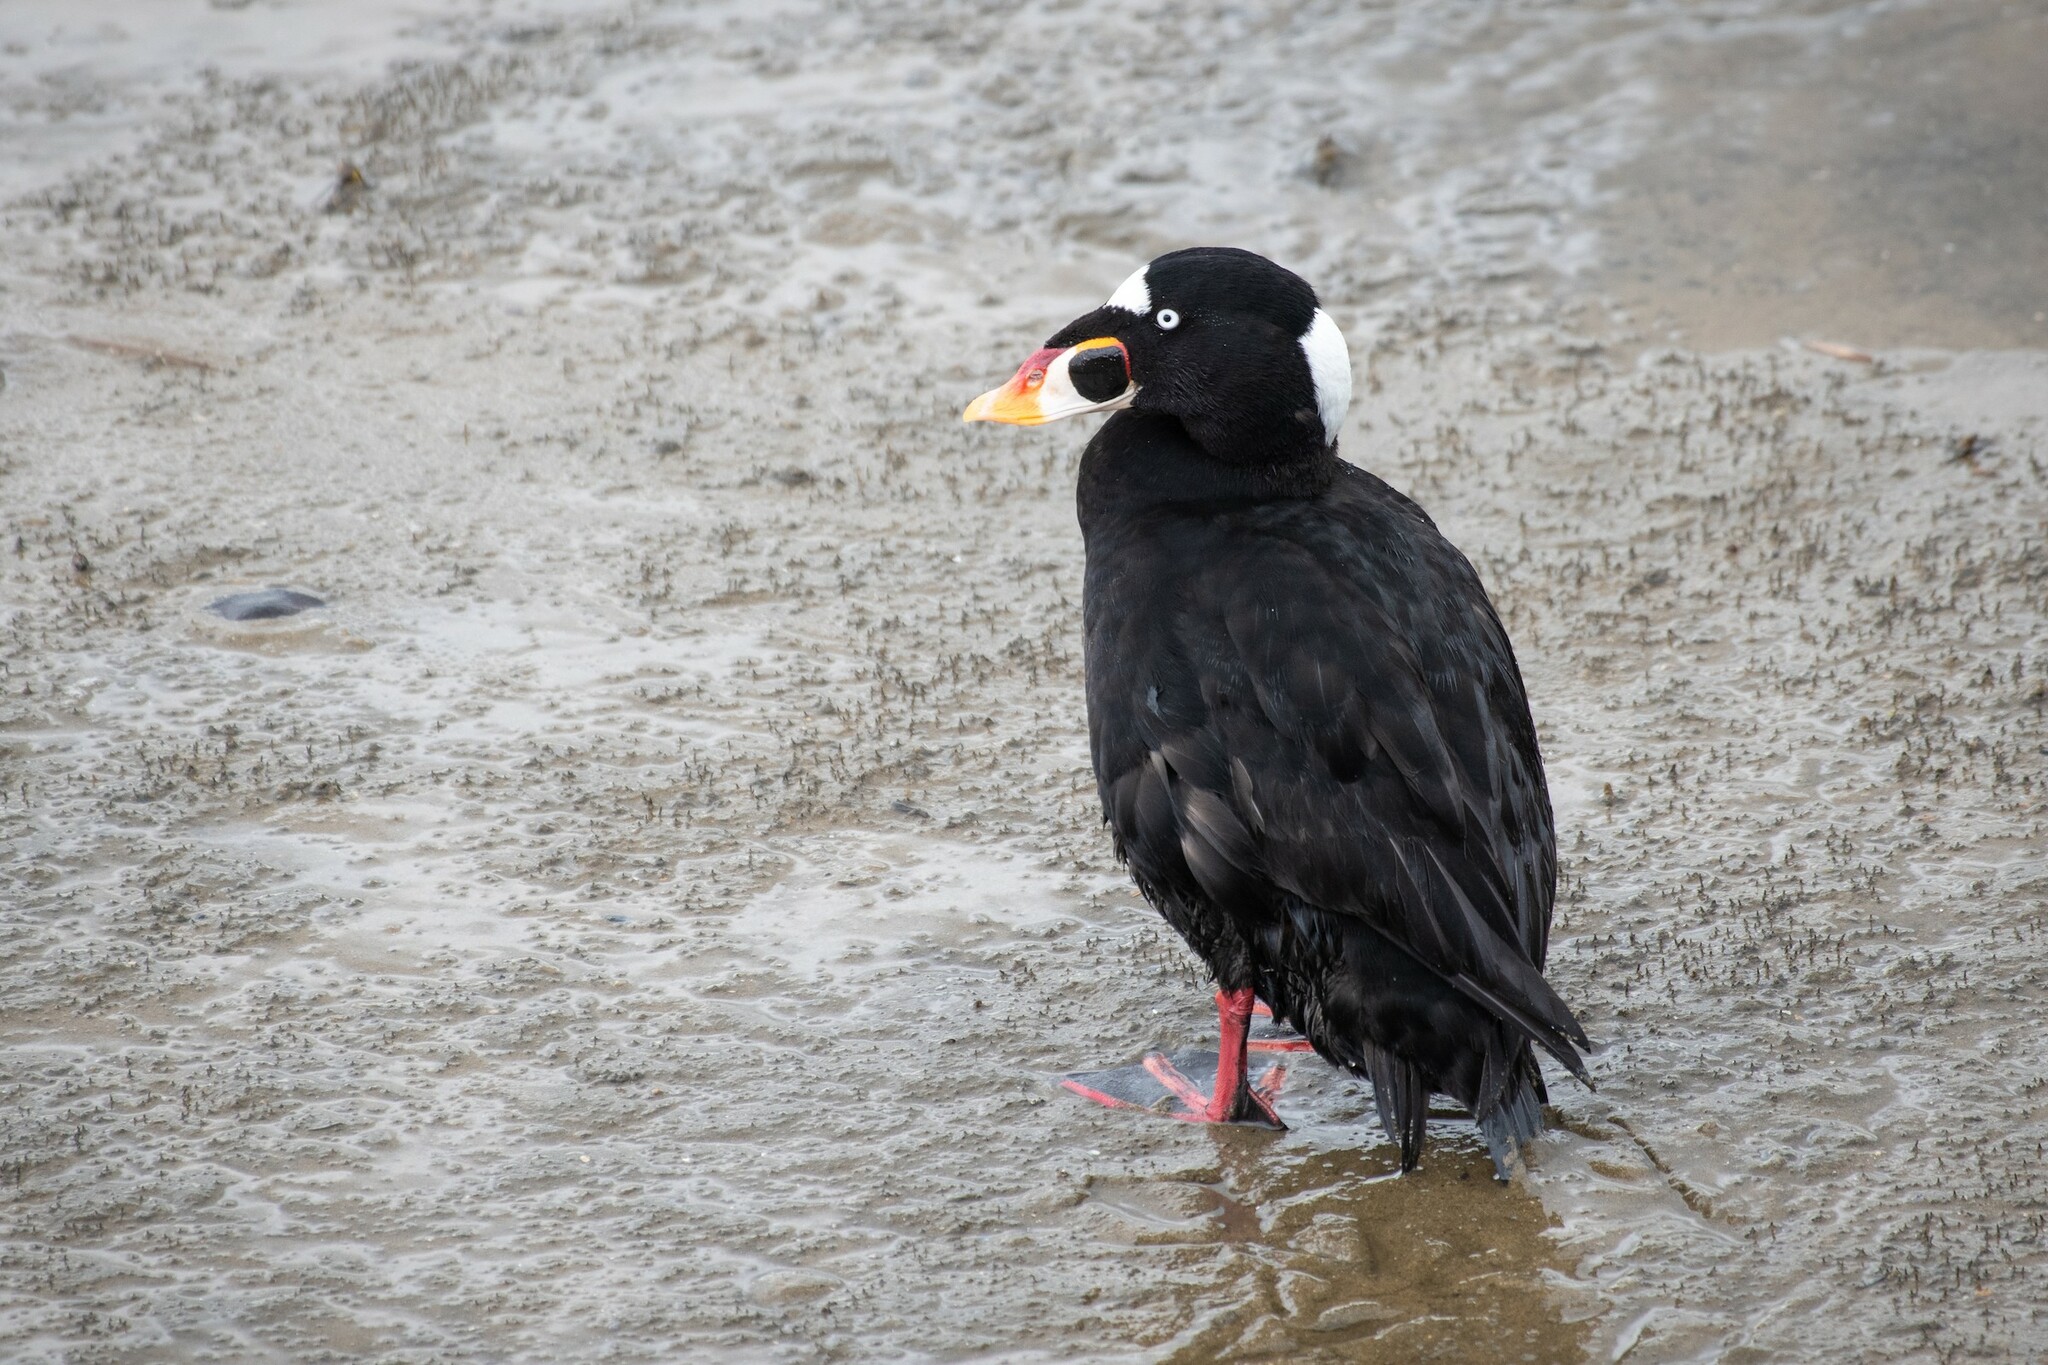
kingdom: Animalia
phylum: Chordata
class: Aves
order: Anseriformes
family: Anatidae
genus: Melanitta
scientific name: Melanitta perspicillata
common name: Surf scoter
